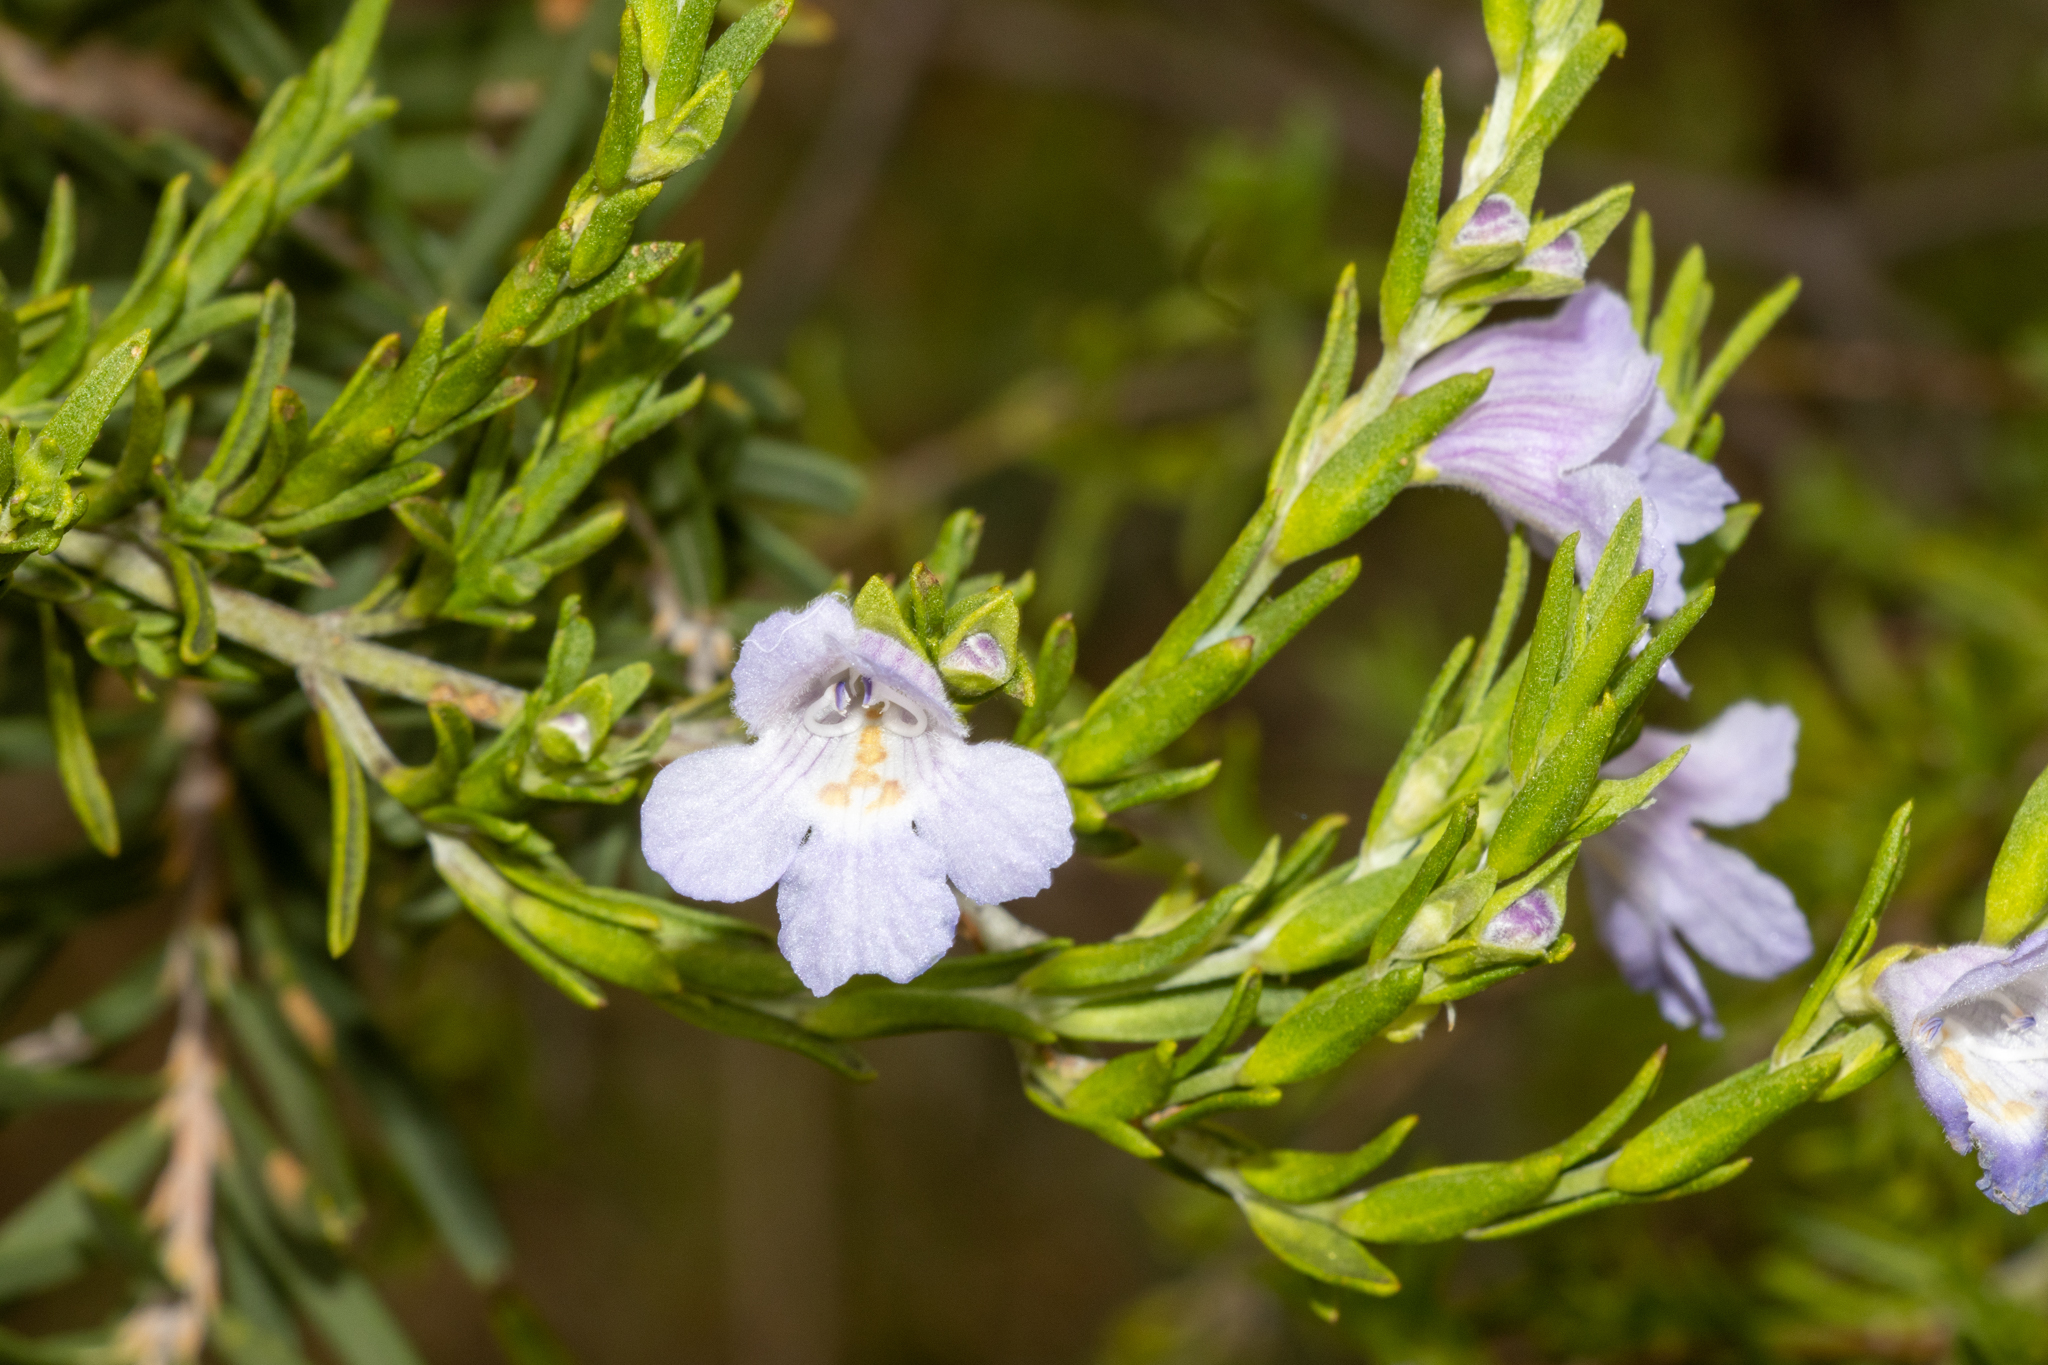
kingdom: Plantae
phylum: Tracheophyta
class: Magnoliopsida
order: Lamiales
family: Lamiaceae
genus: Prostanthera
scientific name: Prostanthera behriana
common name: Downy mintbush
